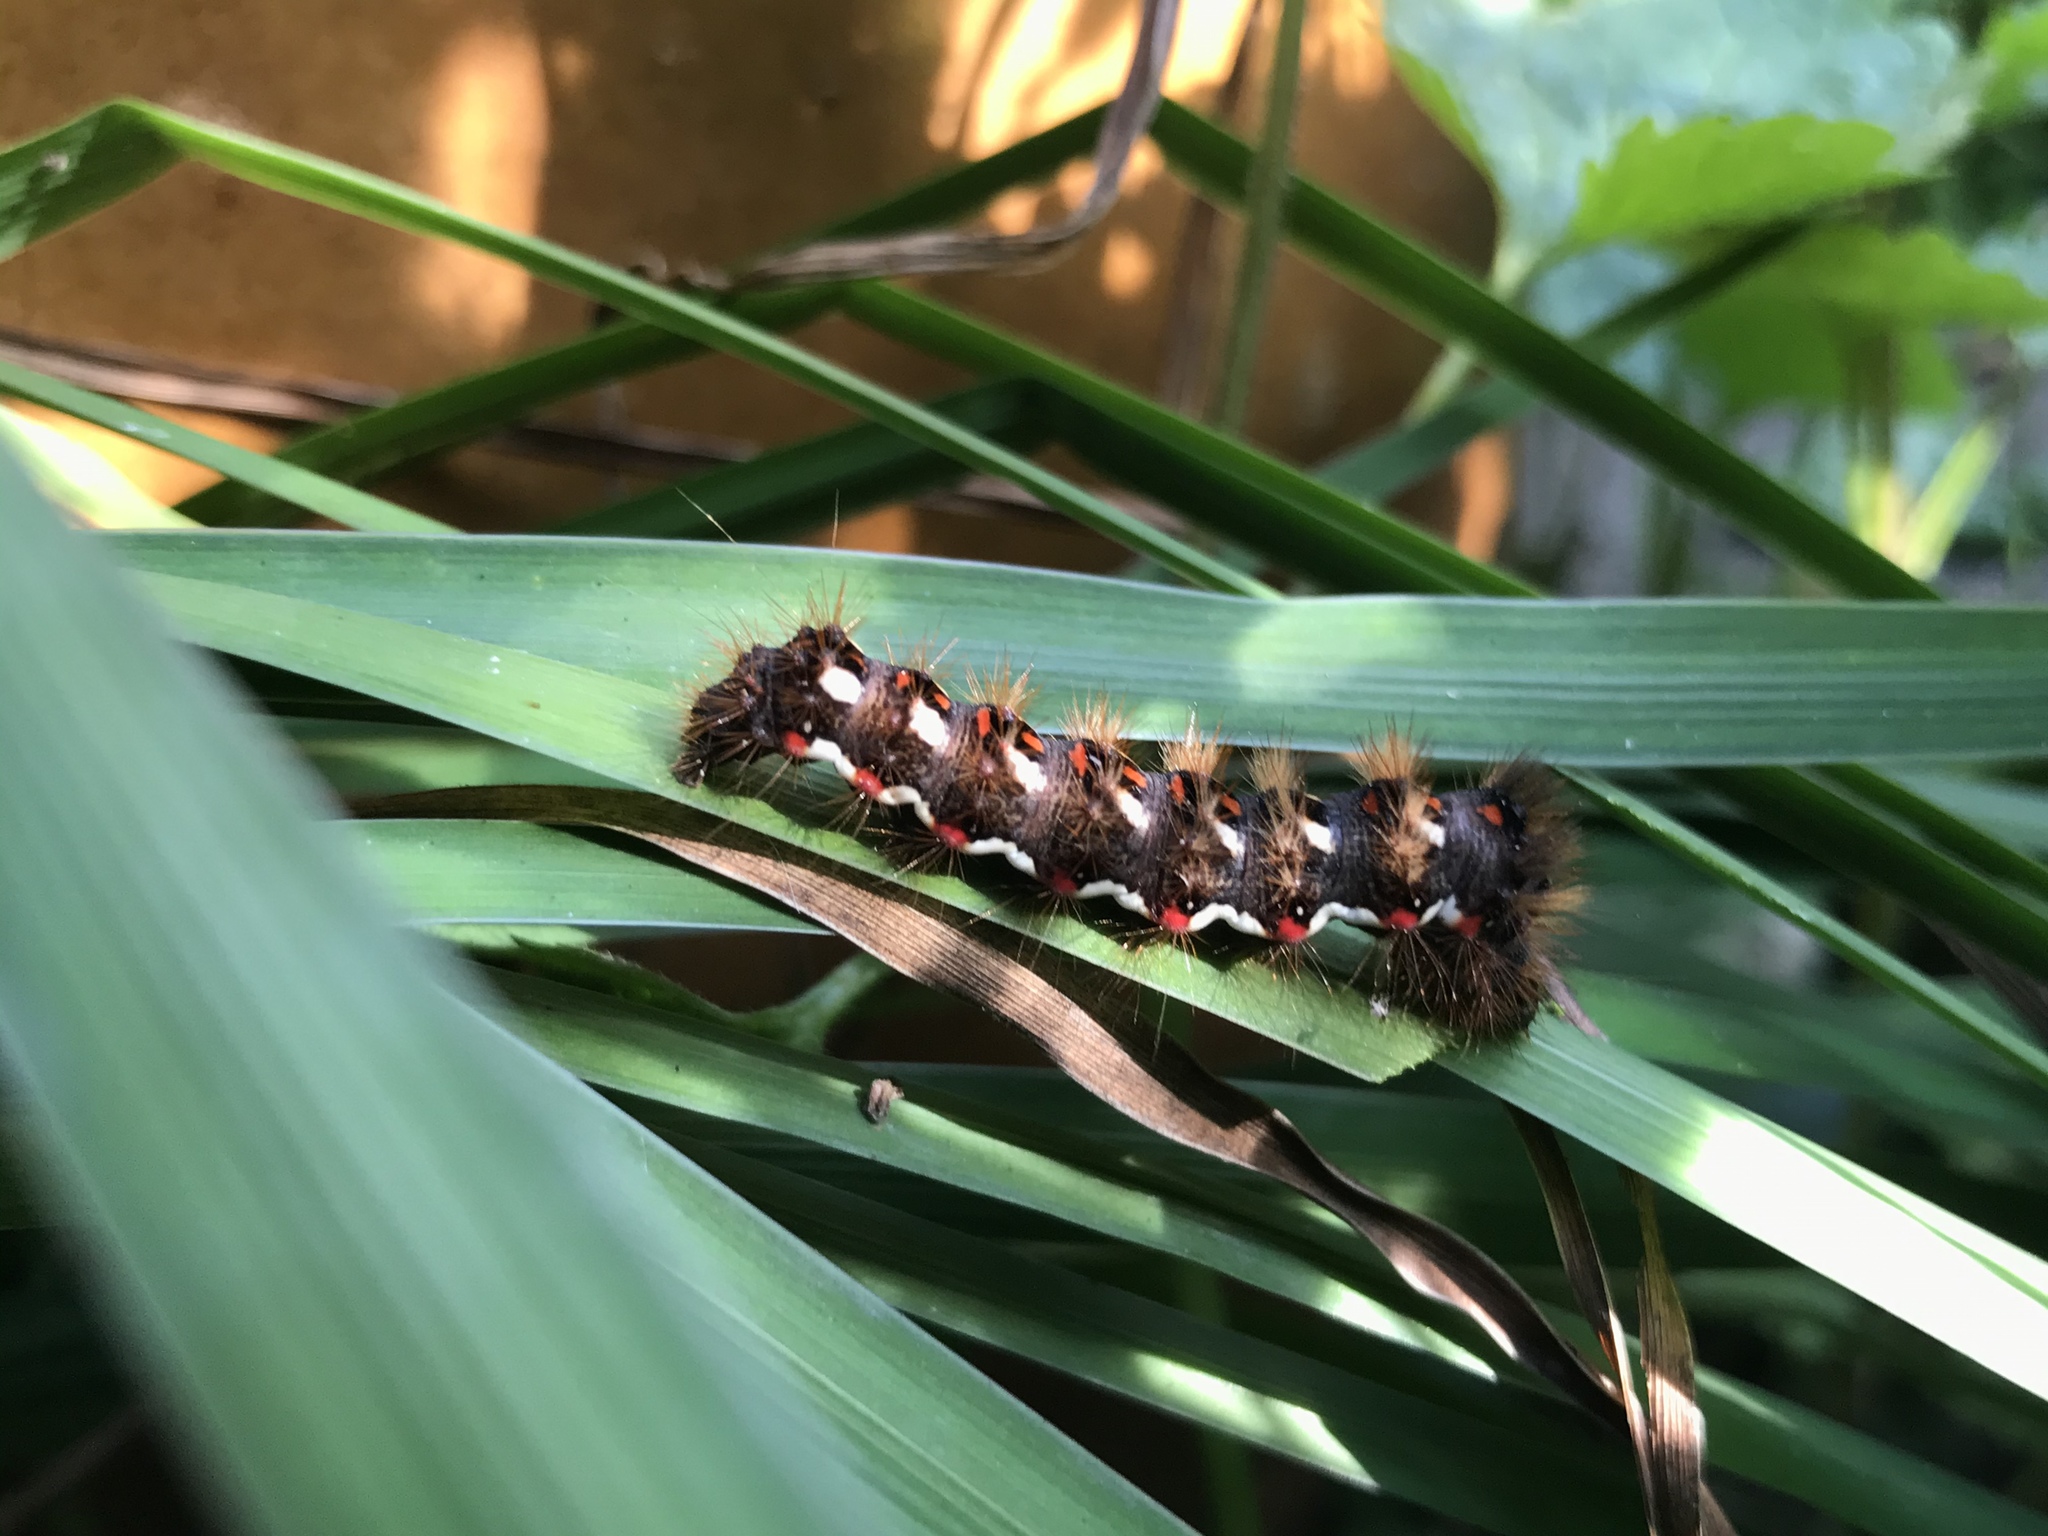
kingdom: Animalia
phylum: Arthropoda
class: Insecta
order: Lepidoptera
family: Noctuidae
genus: Acronicta
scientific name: Acronicta rumicis
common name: Knot grass
